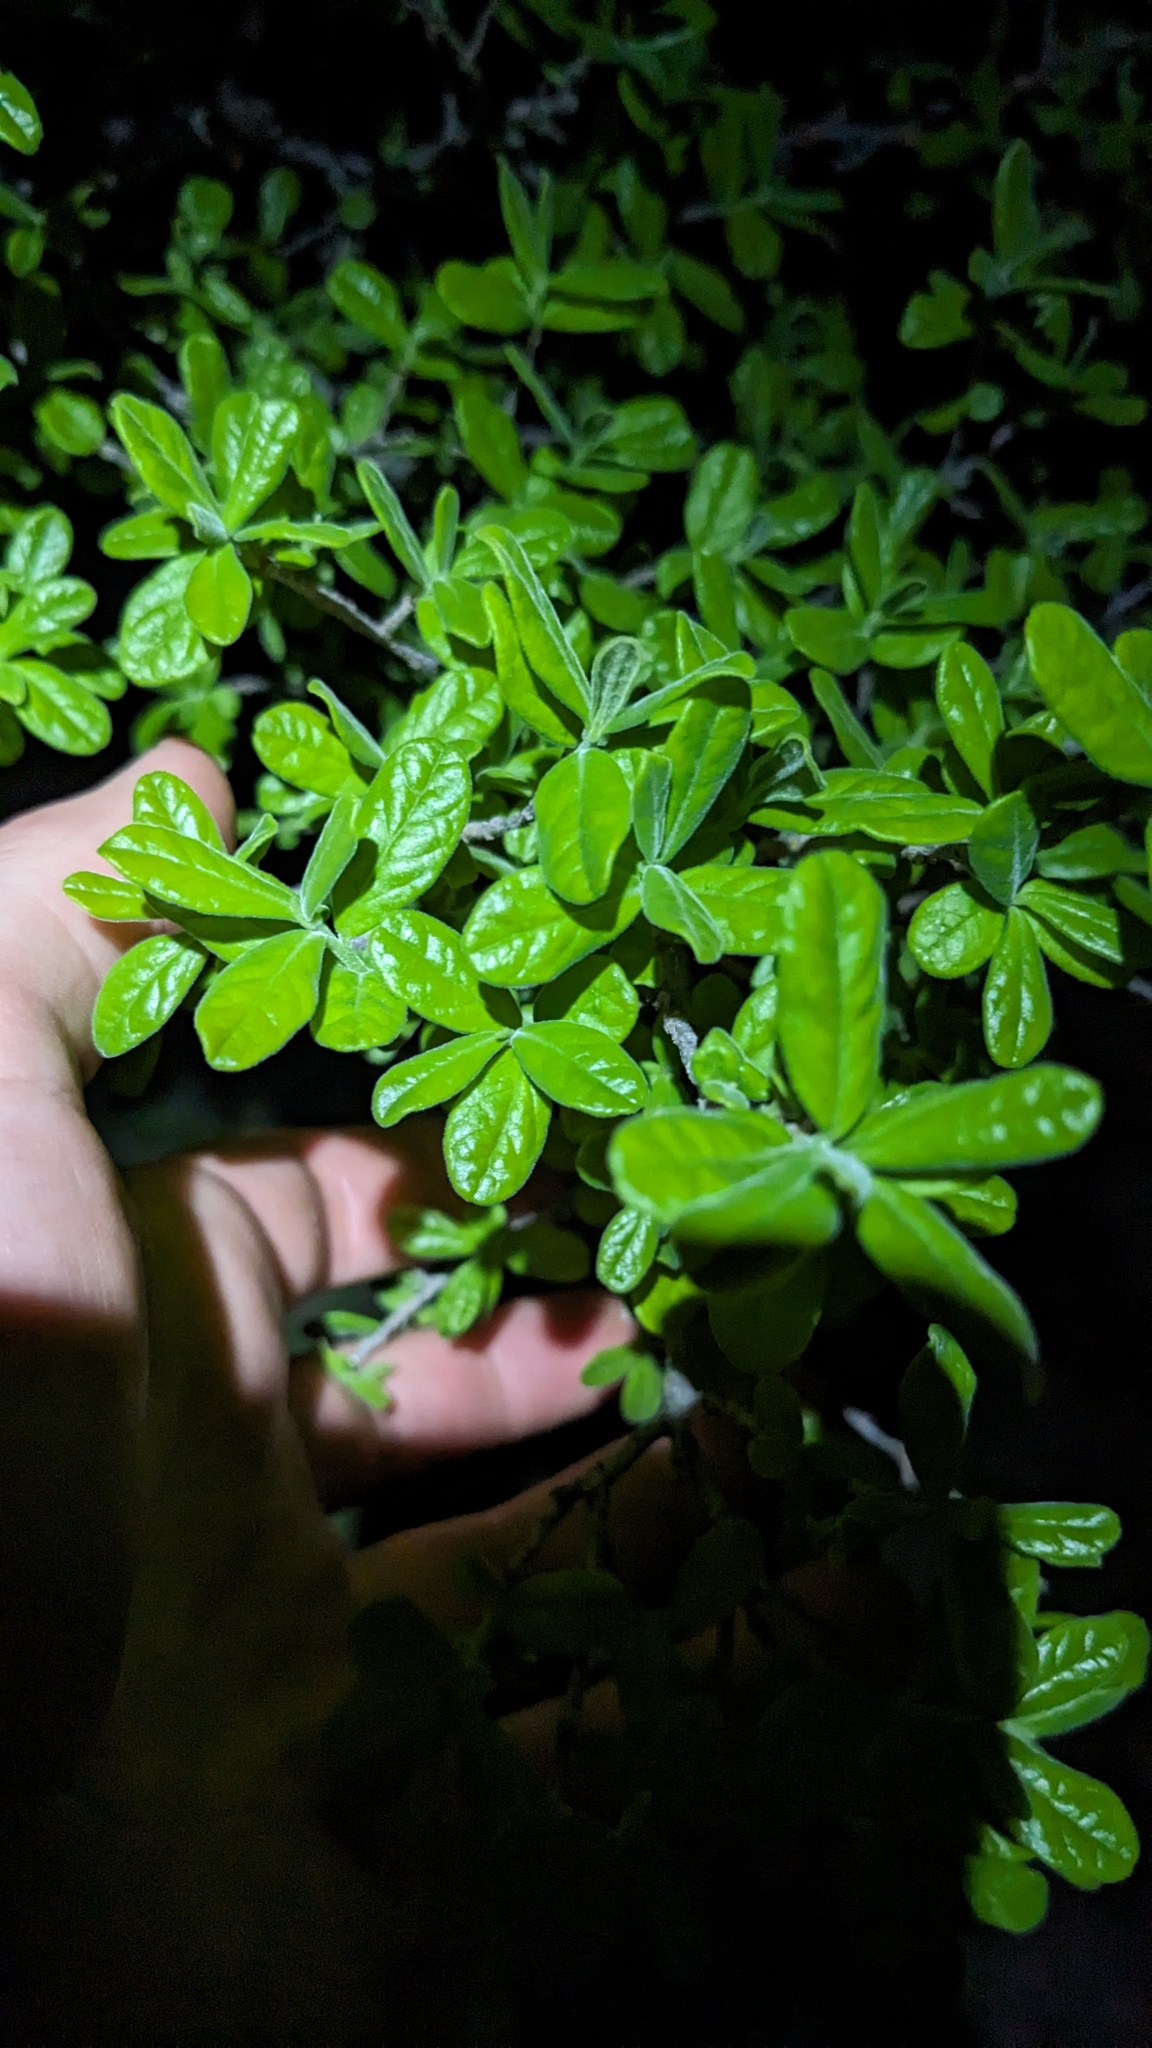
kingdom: Plantae
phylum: Tracheophyta
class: Magnoliopsida
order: Ericales
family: Ebenaceae
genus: Diospyros
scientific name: Diospyros texana
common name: Texas persimmon
